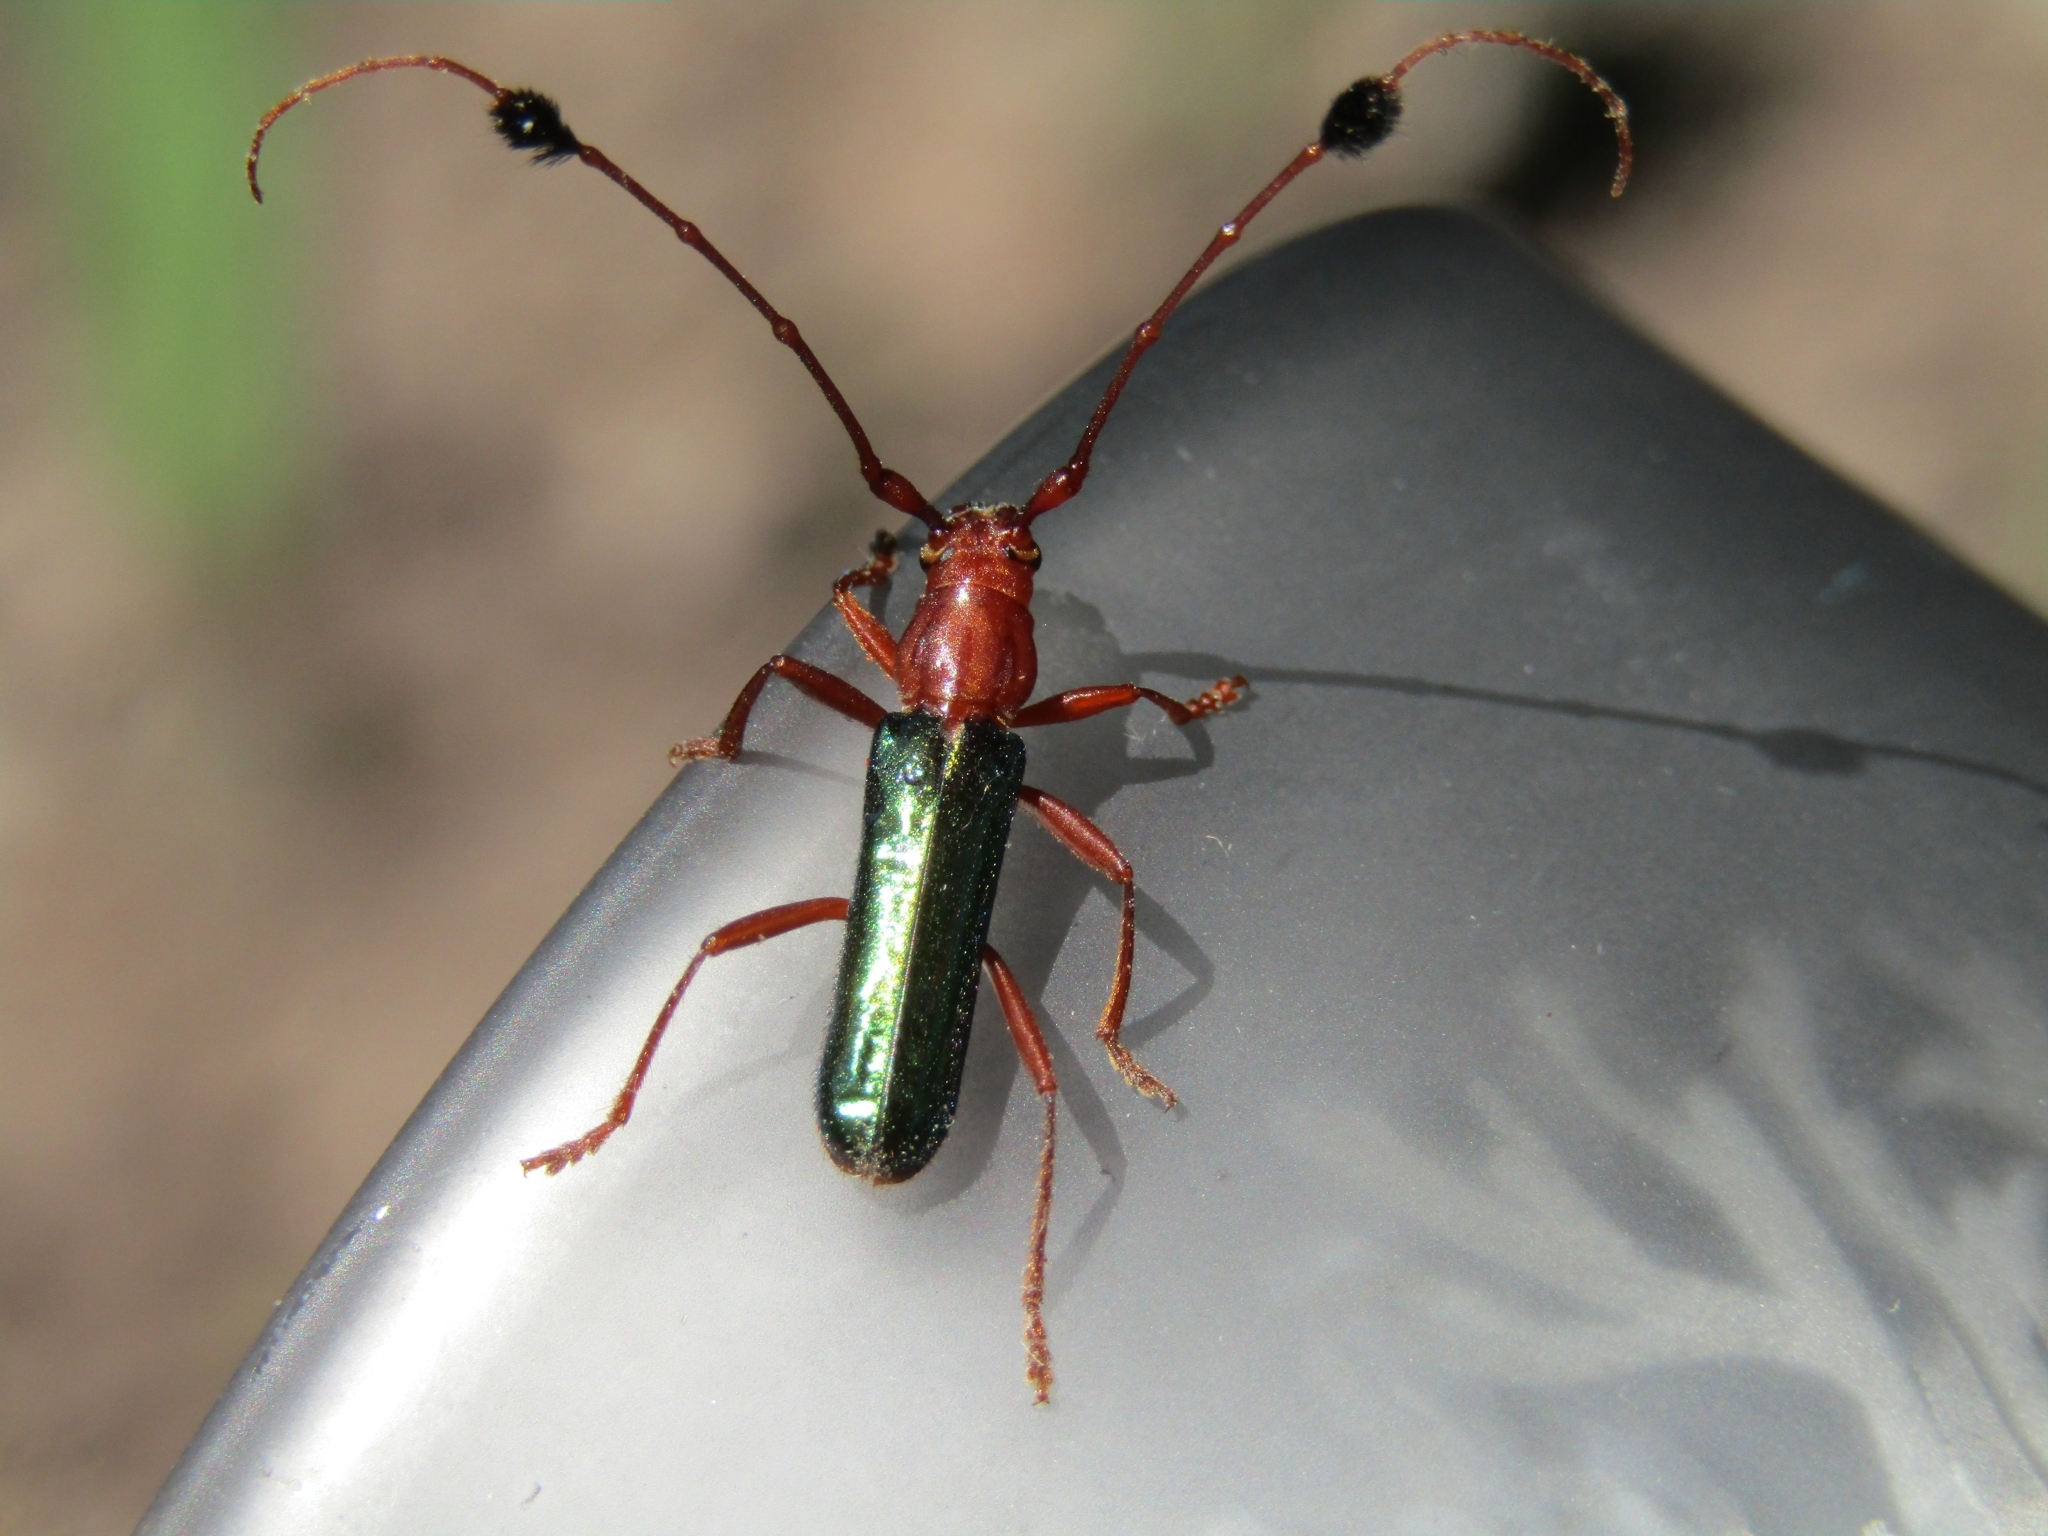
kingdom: Animalia
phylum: Arthropoda
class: Insecta
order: Coleoptera
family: Cerambycidae
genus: Compsocerus
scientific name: Compsocerus violaceus
